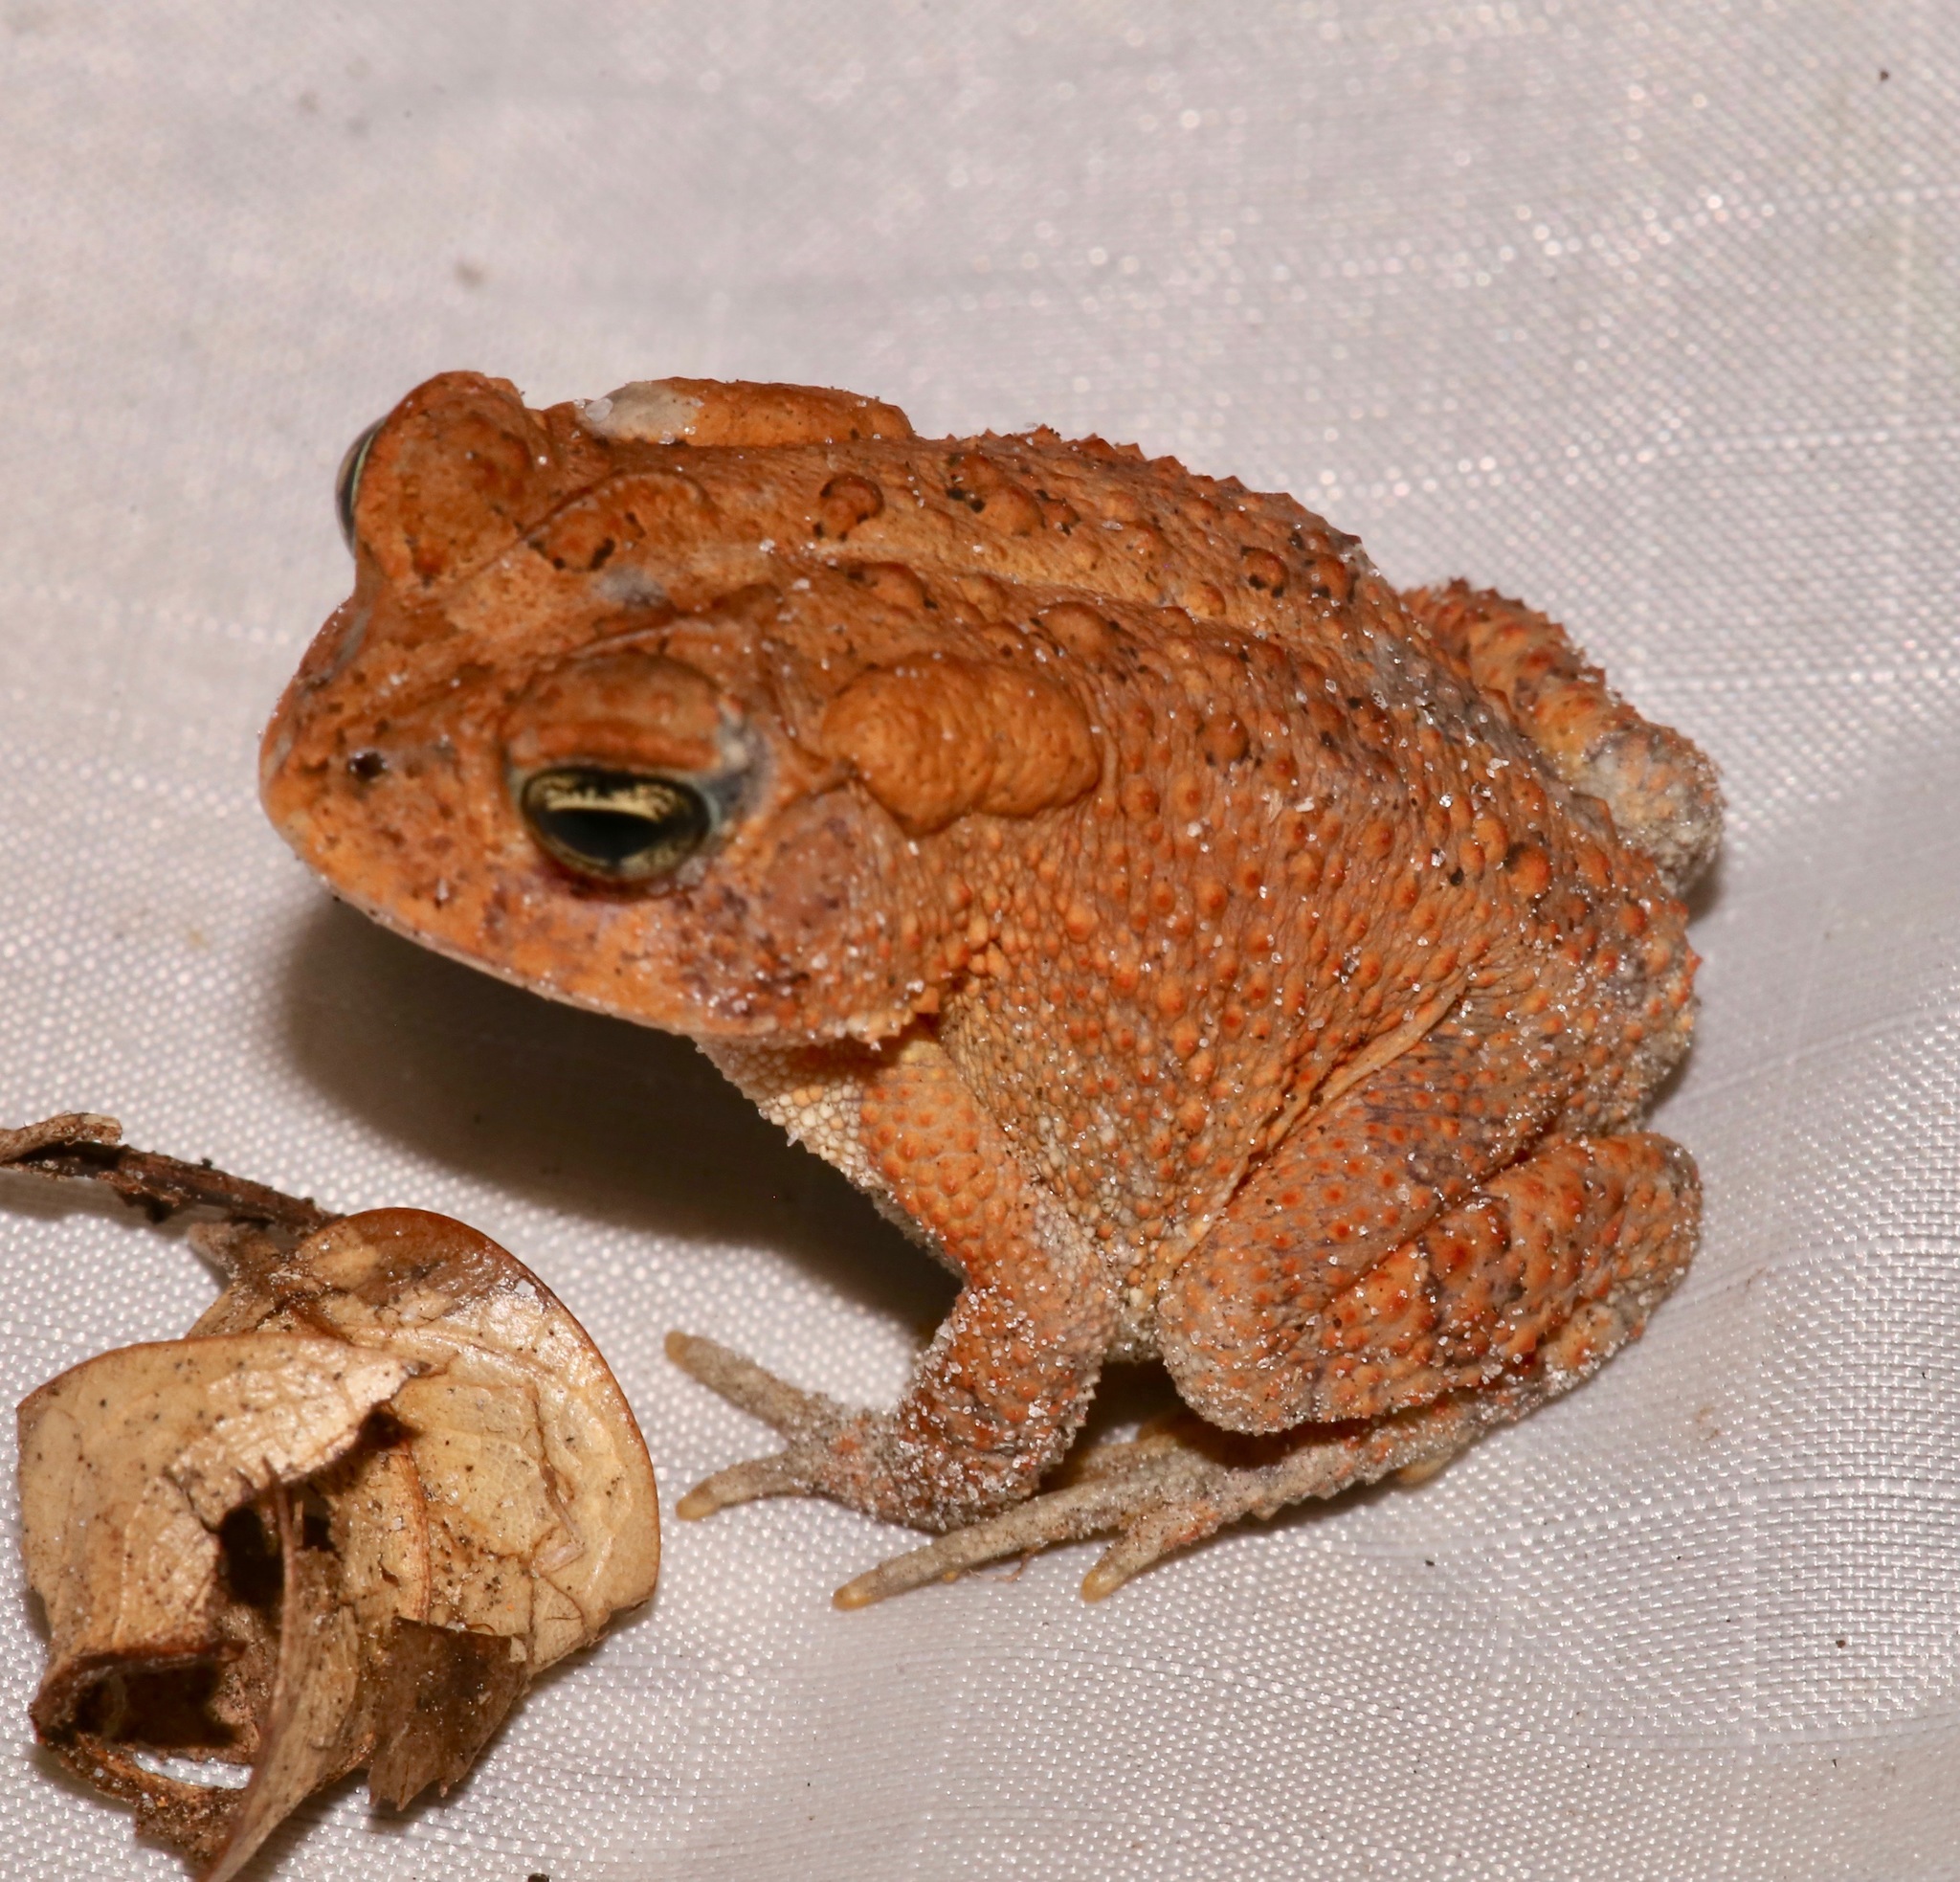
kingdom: Animalia
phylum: Chordata
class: Amphibia
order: Anura
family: Bufonidae
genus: Anaxyrus
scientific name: Anaxyrus terrestris
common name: Southern toad
